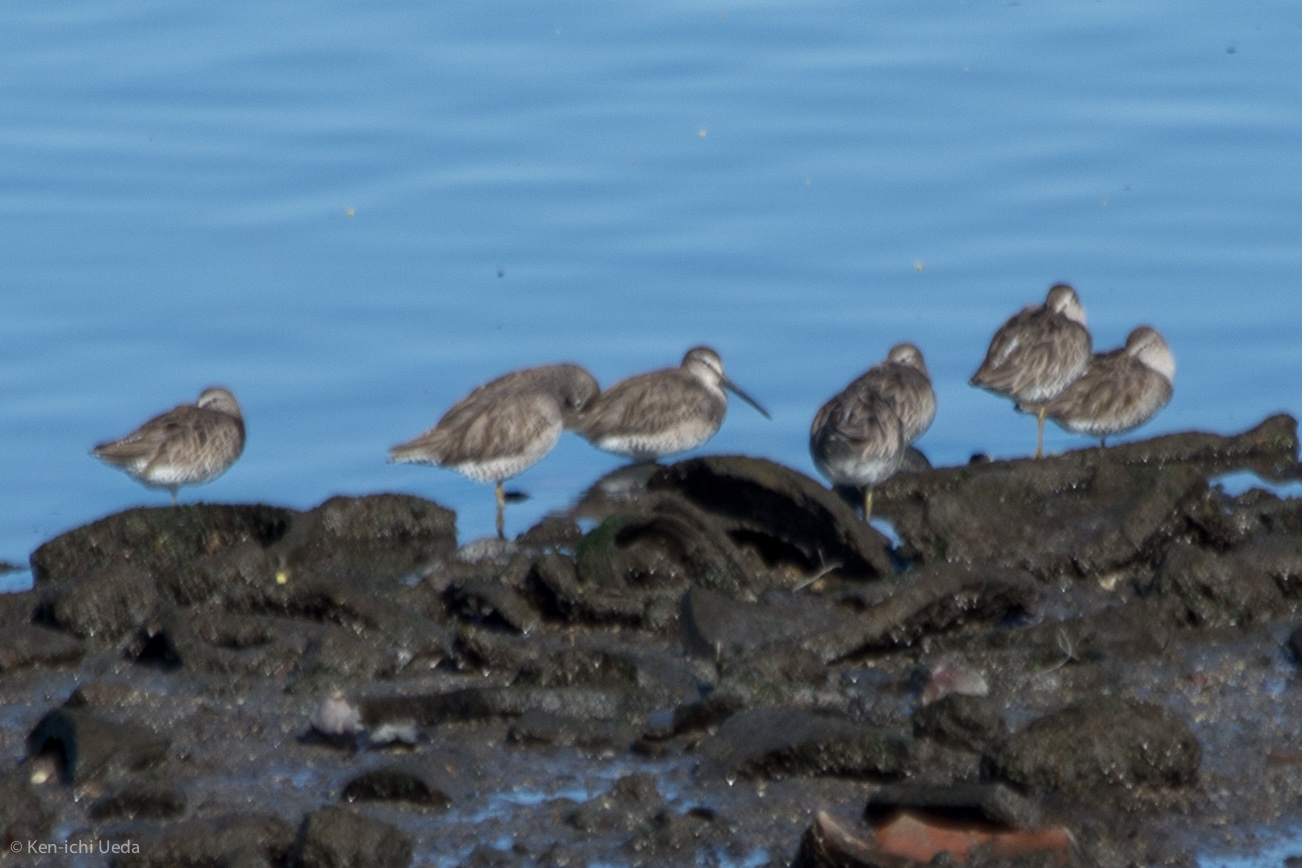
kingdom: Animalia
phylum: Chordata
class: Aves
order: Charadriiformes
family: Scolopacidae
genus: Limnodromus
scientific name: Limnodromus
